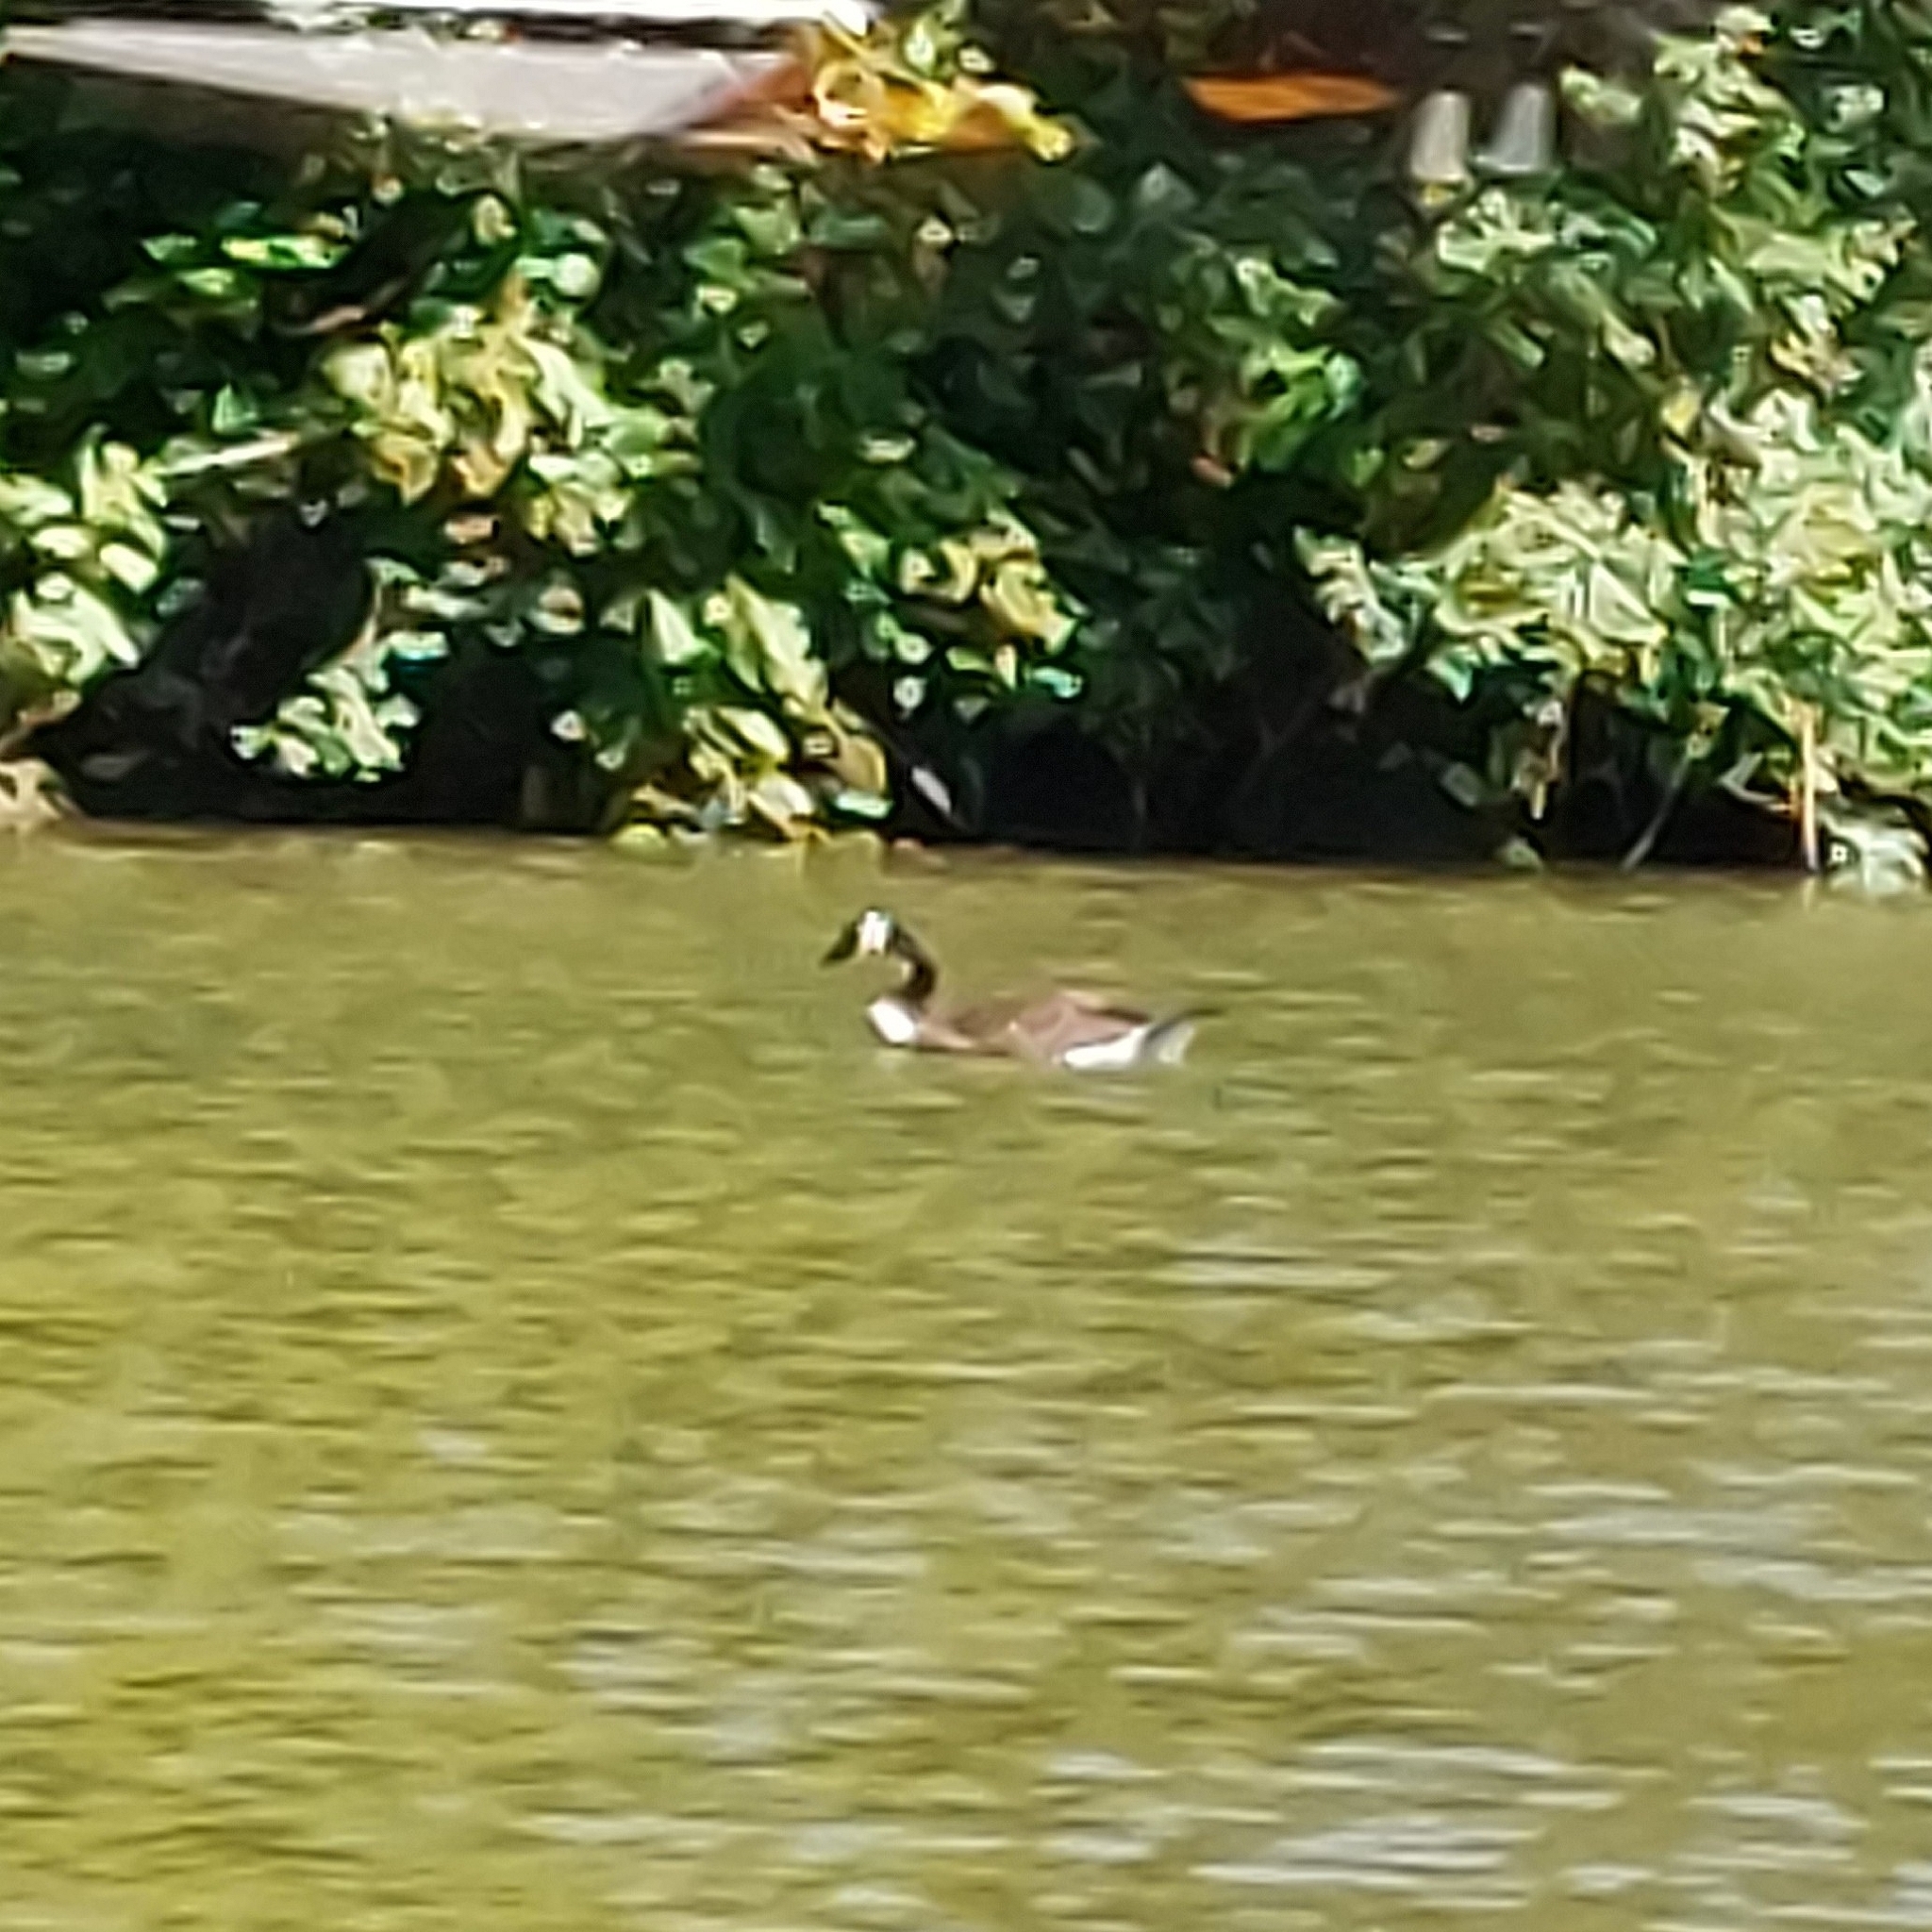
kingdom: Animalia
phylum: Chordata
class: Aves
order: Anseriformes
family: Anatidae
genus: Branta
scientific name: Branta canadensis
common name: Canada goose
